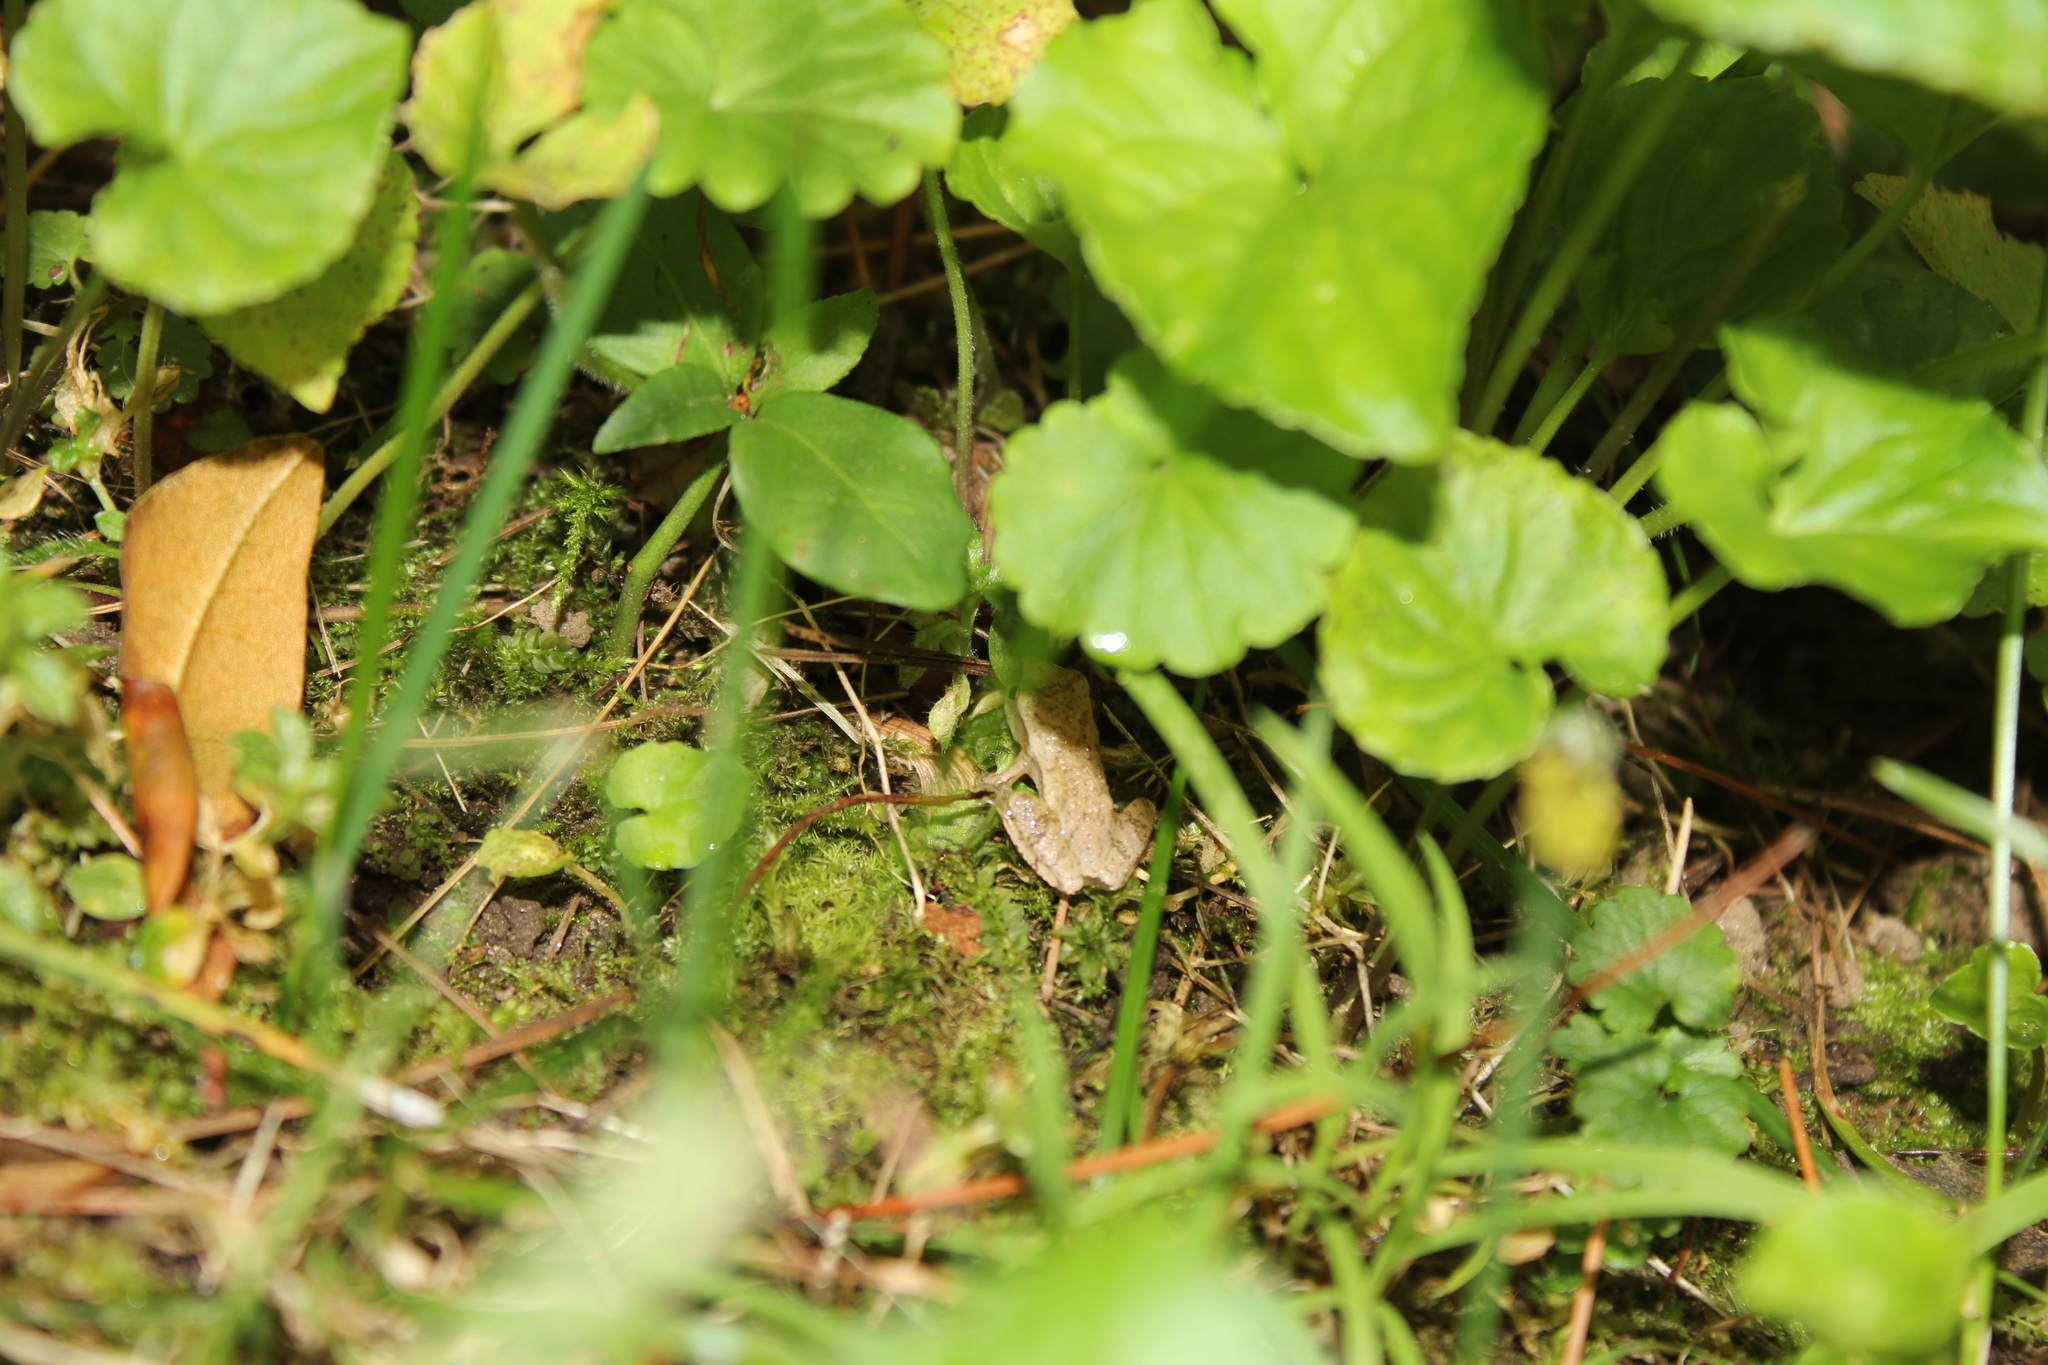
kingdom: Animalia
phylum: Chordata
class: Amphibia
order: Anura
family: Hylidae
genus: Pseudacris
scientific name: Pseudacris crucifer
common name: Spring peeper
